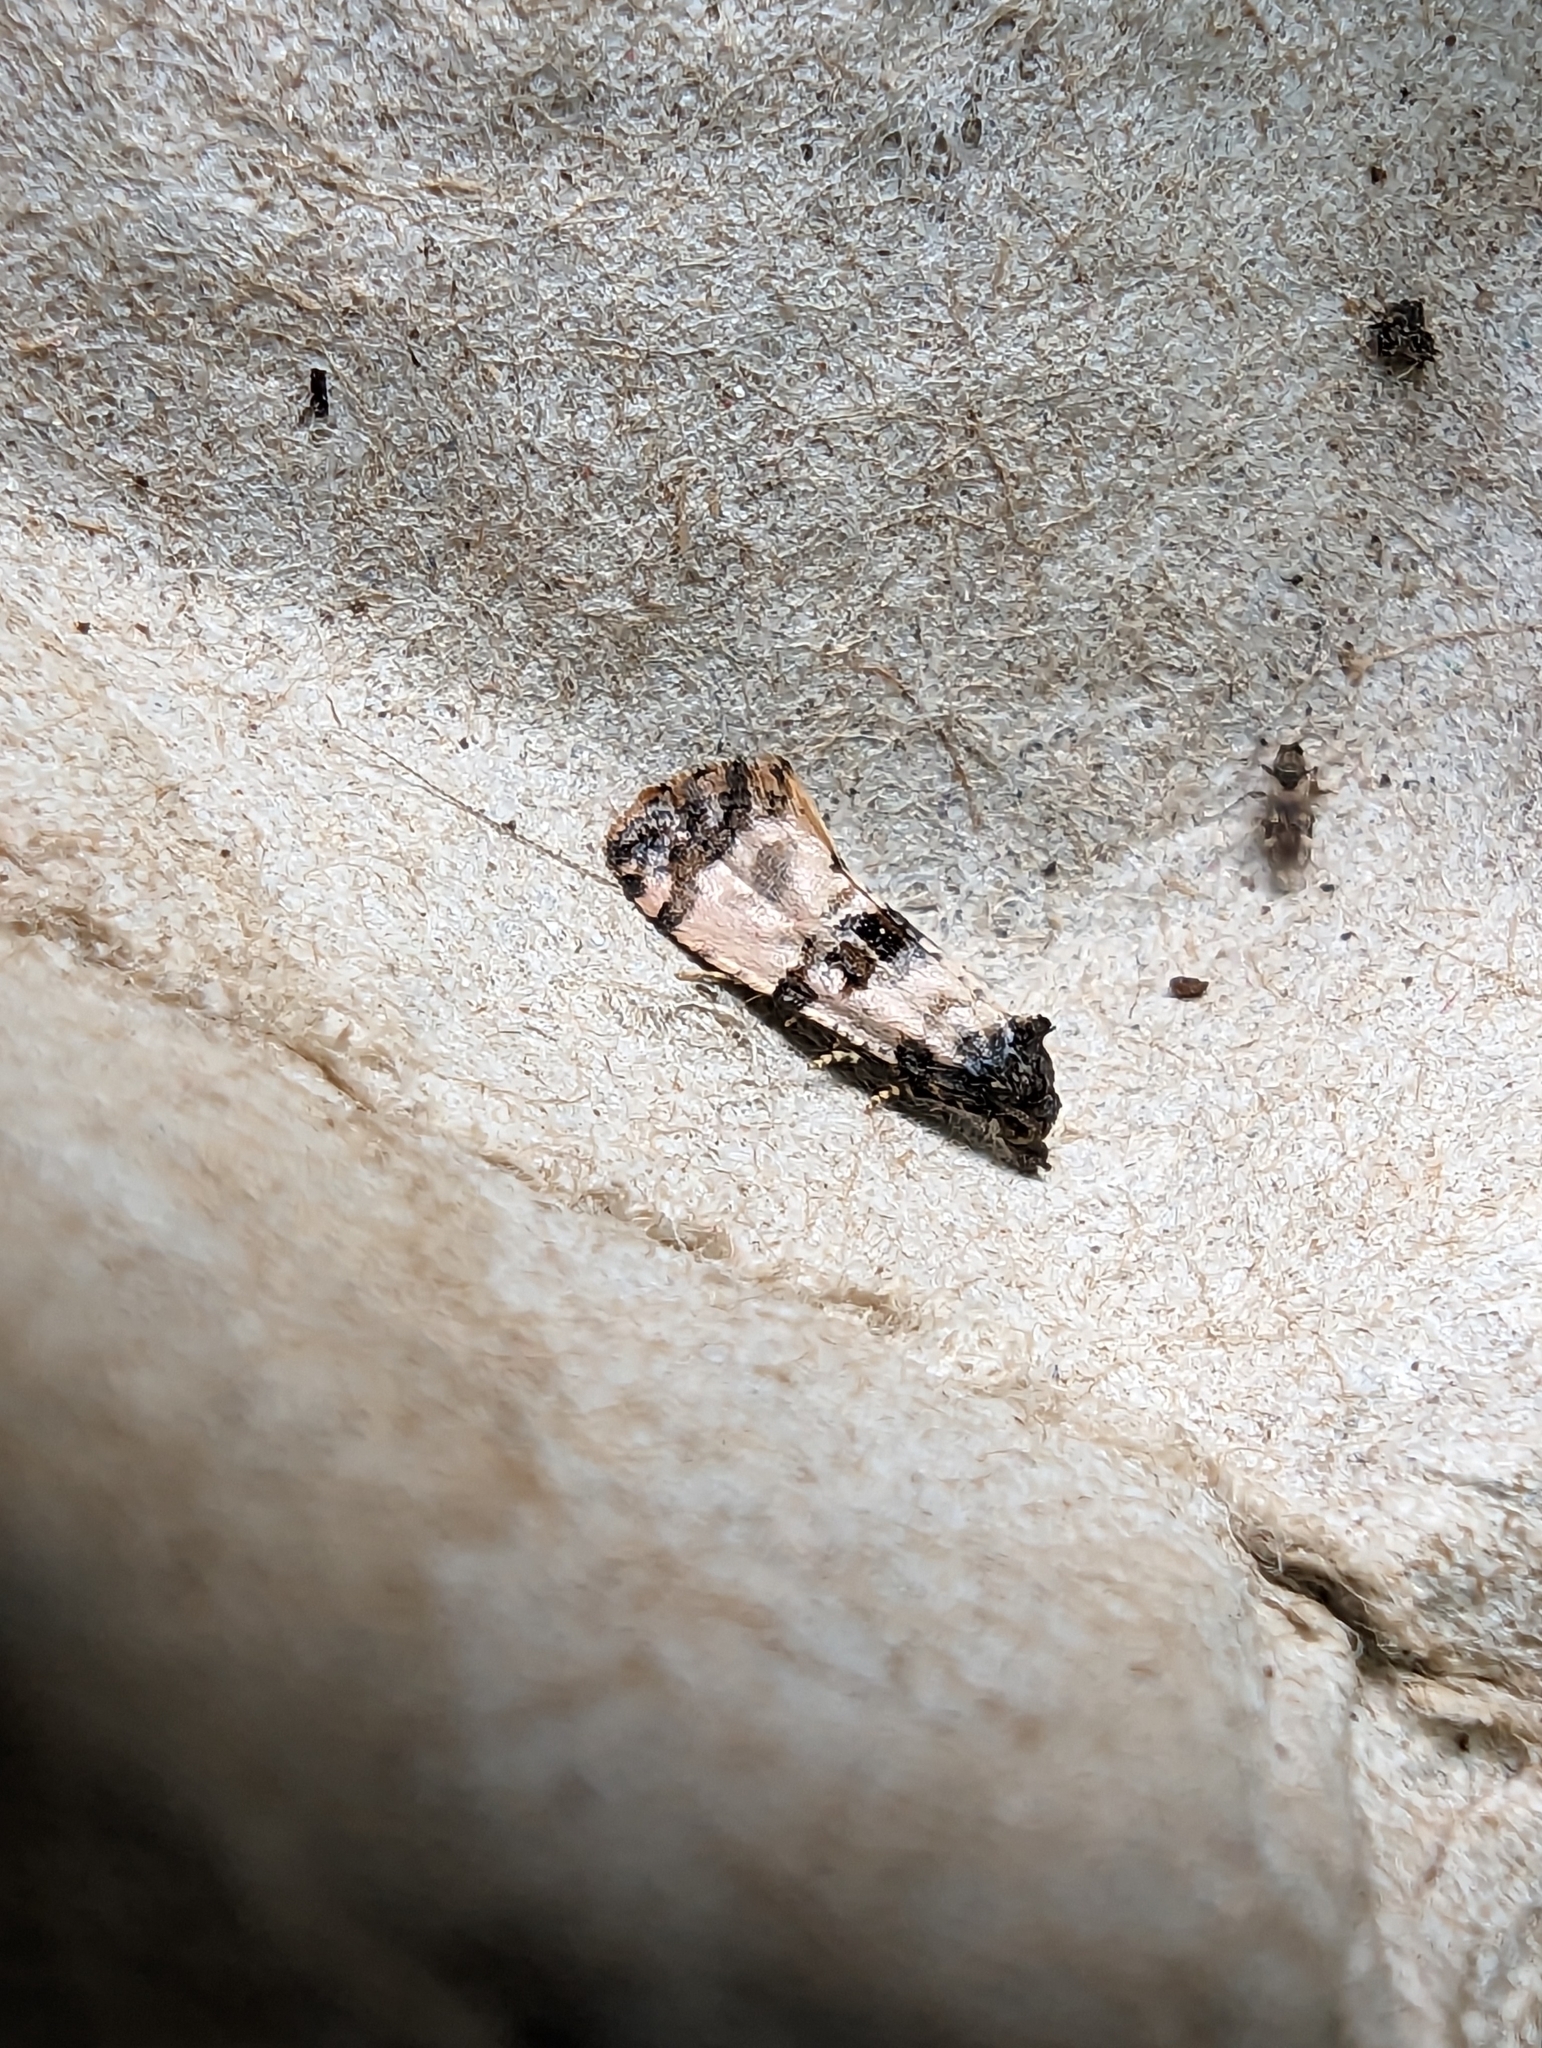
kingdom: Animalia
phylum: Arthropoda
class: Insecta
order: Lepidoptera
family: Tortricidae
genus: Cochylis
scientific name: Cochylis atricapitana
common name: Tortricid moth
